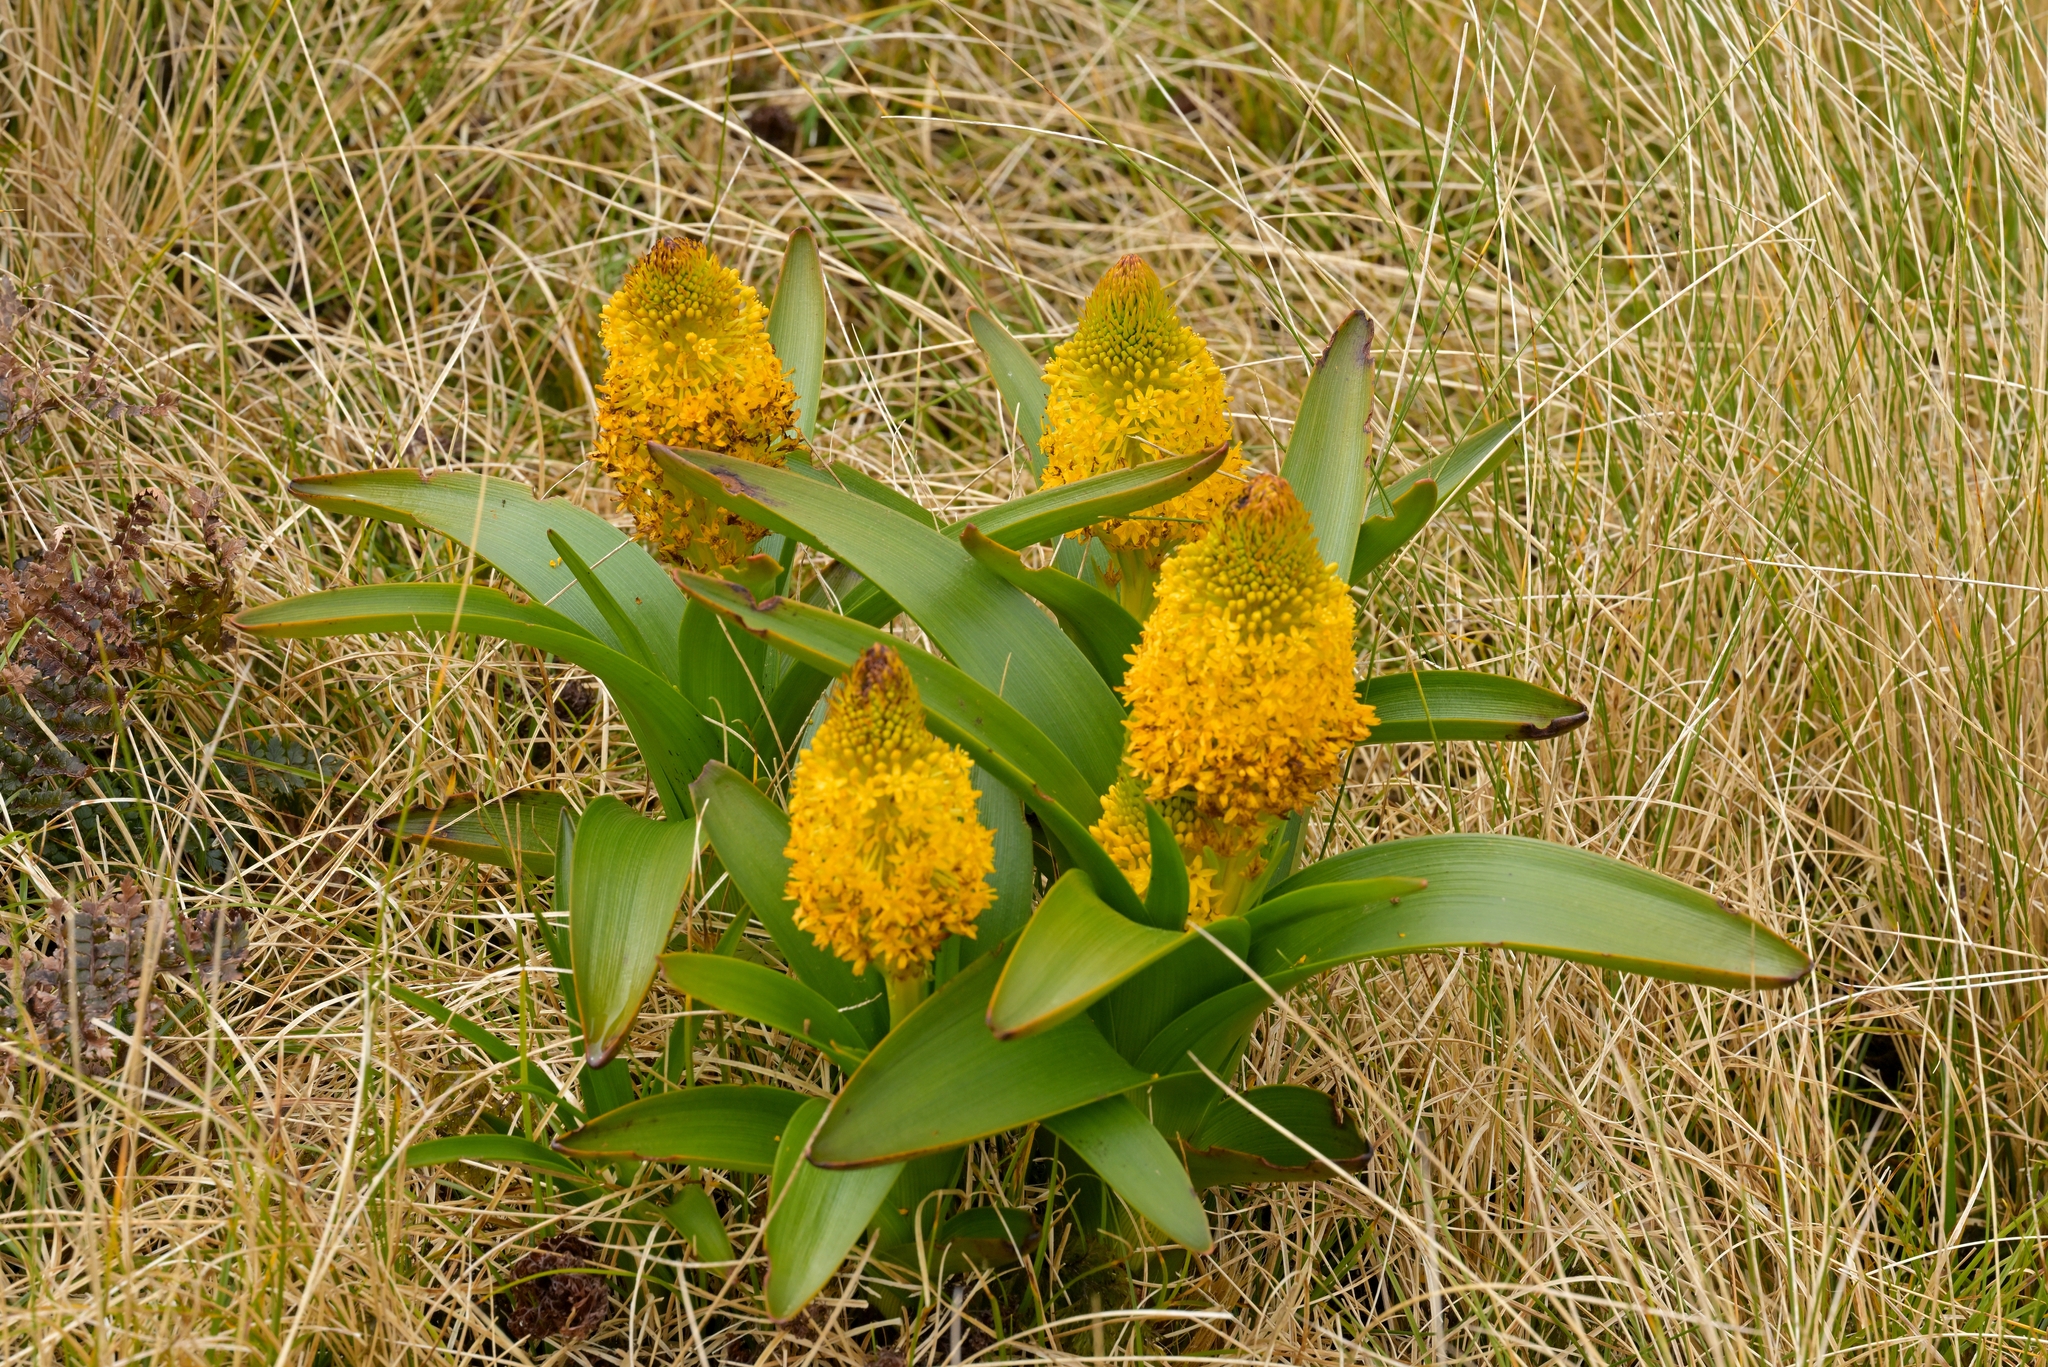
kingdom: Plantae
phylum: Tracheophyta
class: Liliopsida
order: Asparagales
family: Asphodelaceae
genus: Bulbinella
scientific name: Bulbinella rossii
